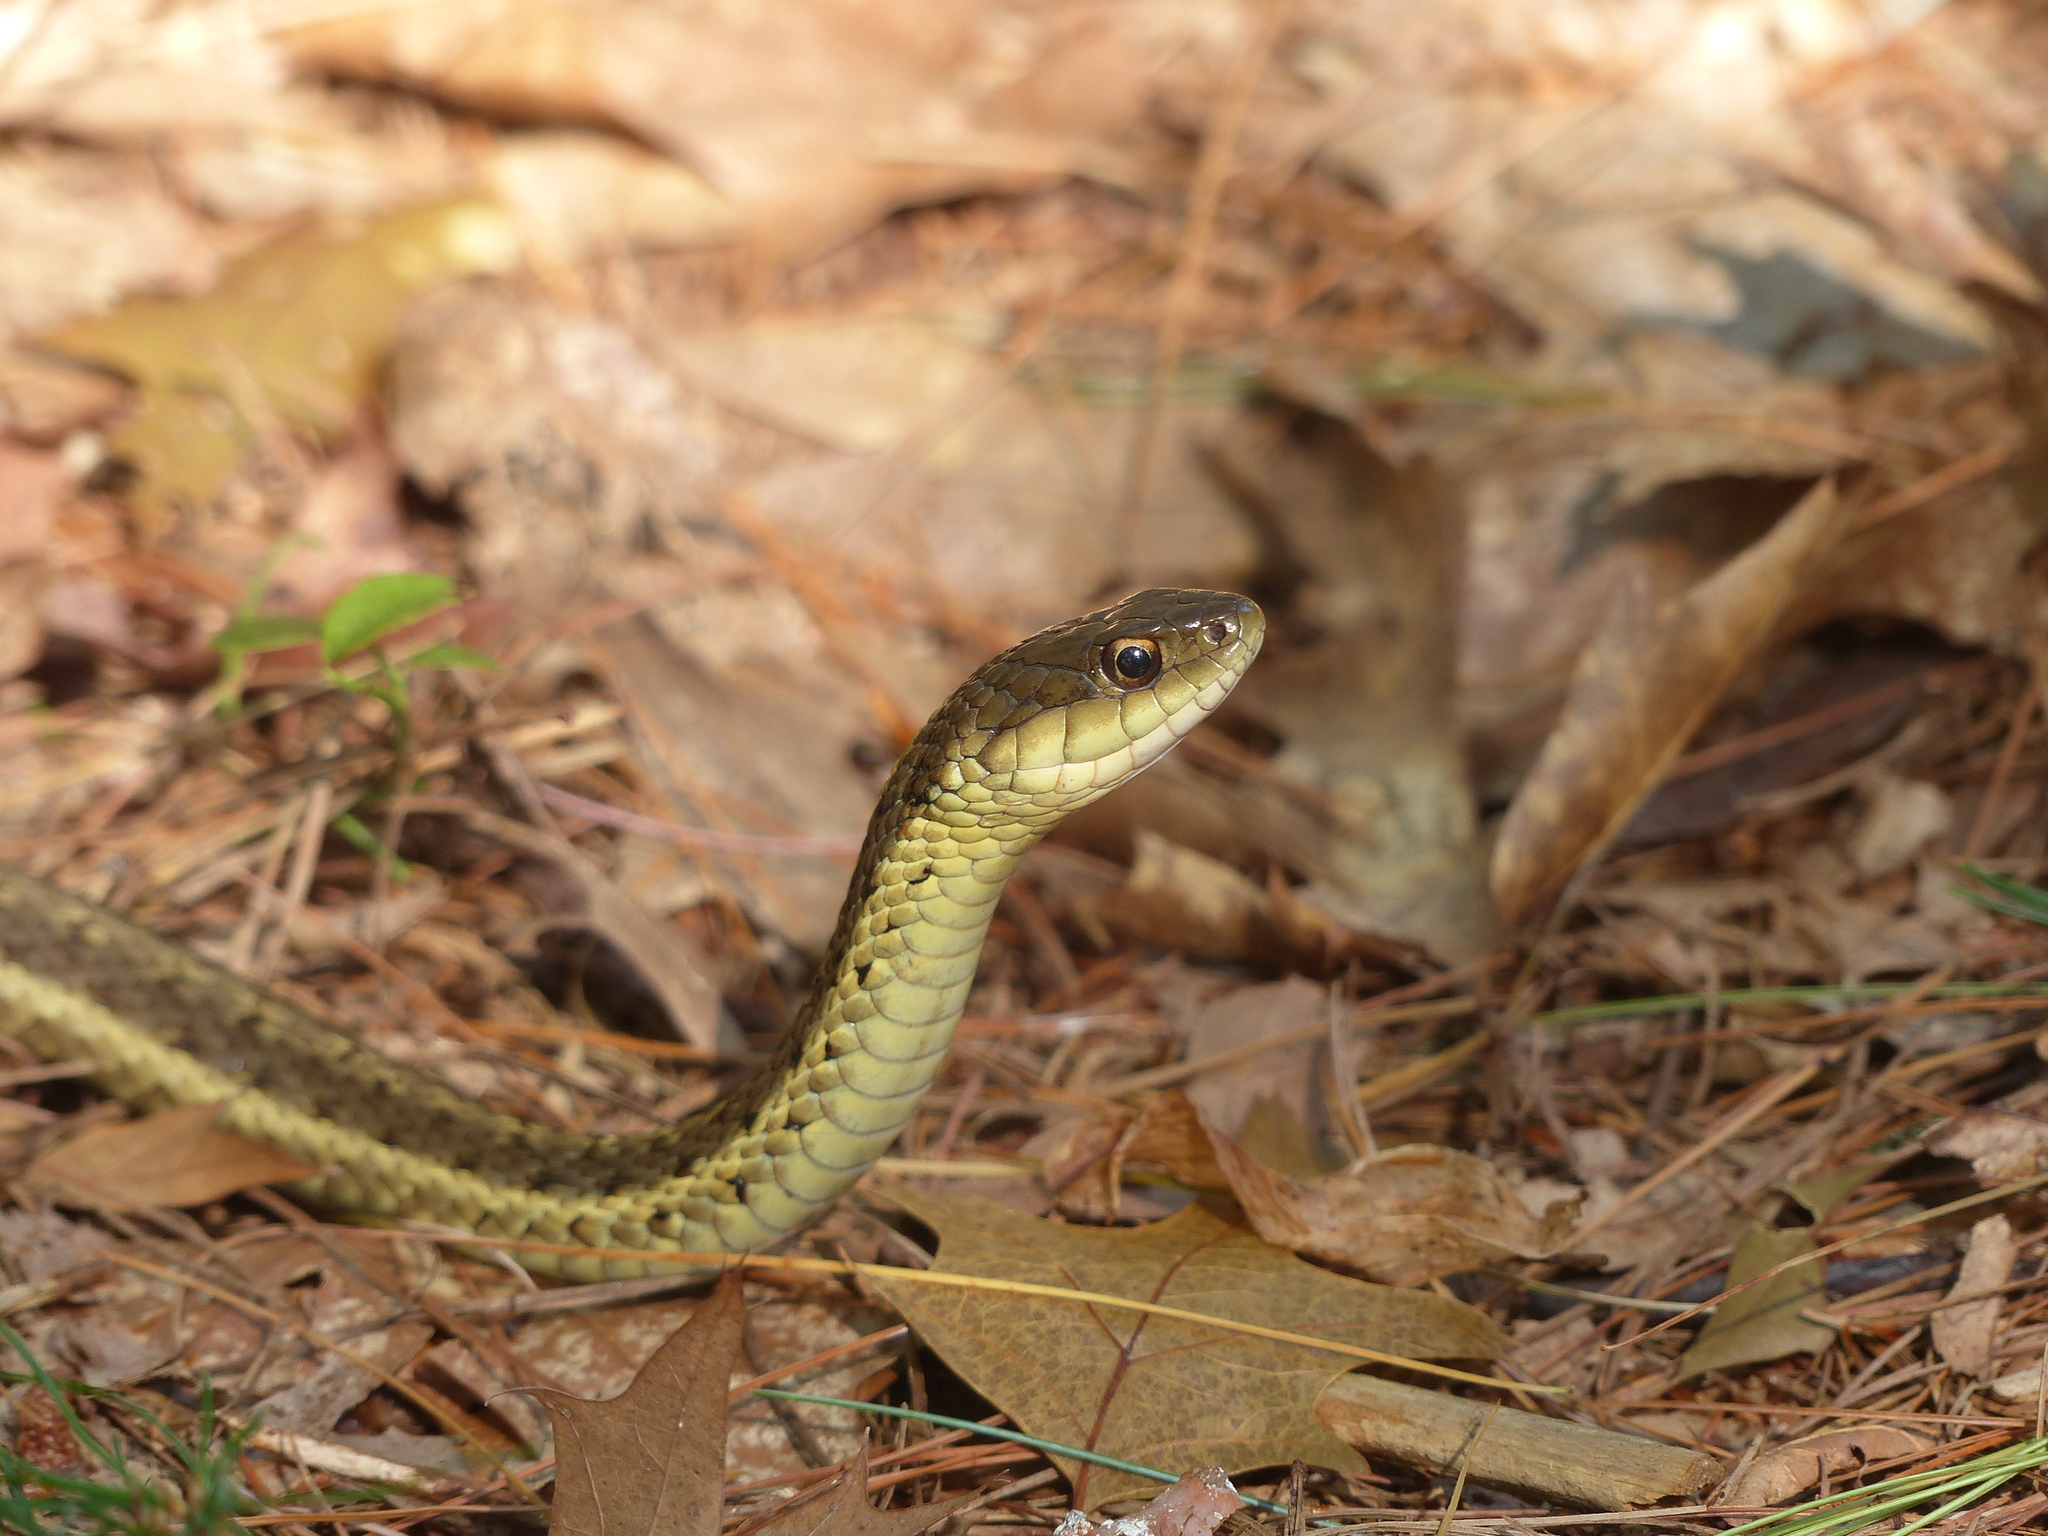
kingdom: Animalia
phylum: Chordata
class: Squamata
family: Colubridae
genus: Thamnophis
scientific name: Thamnophis sirtalis
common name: Common garter snake
